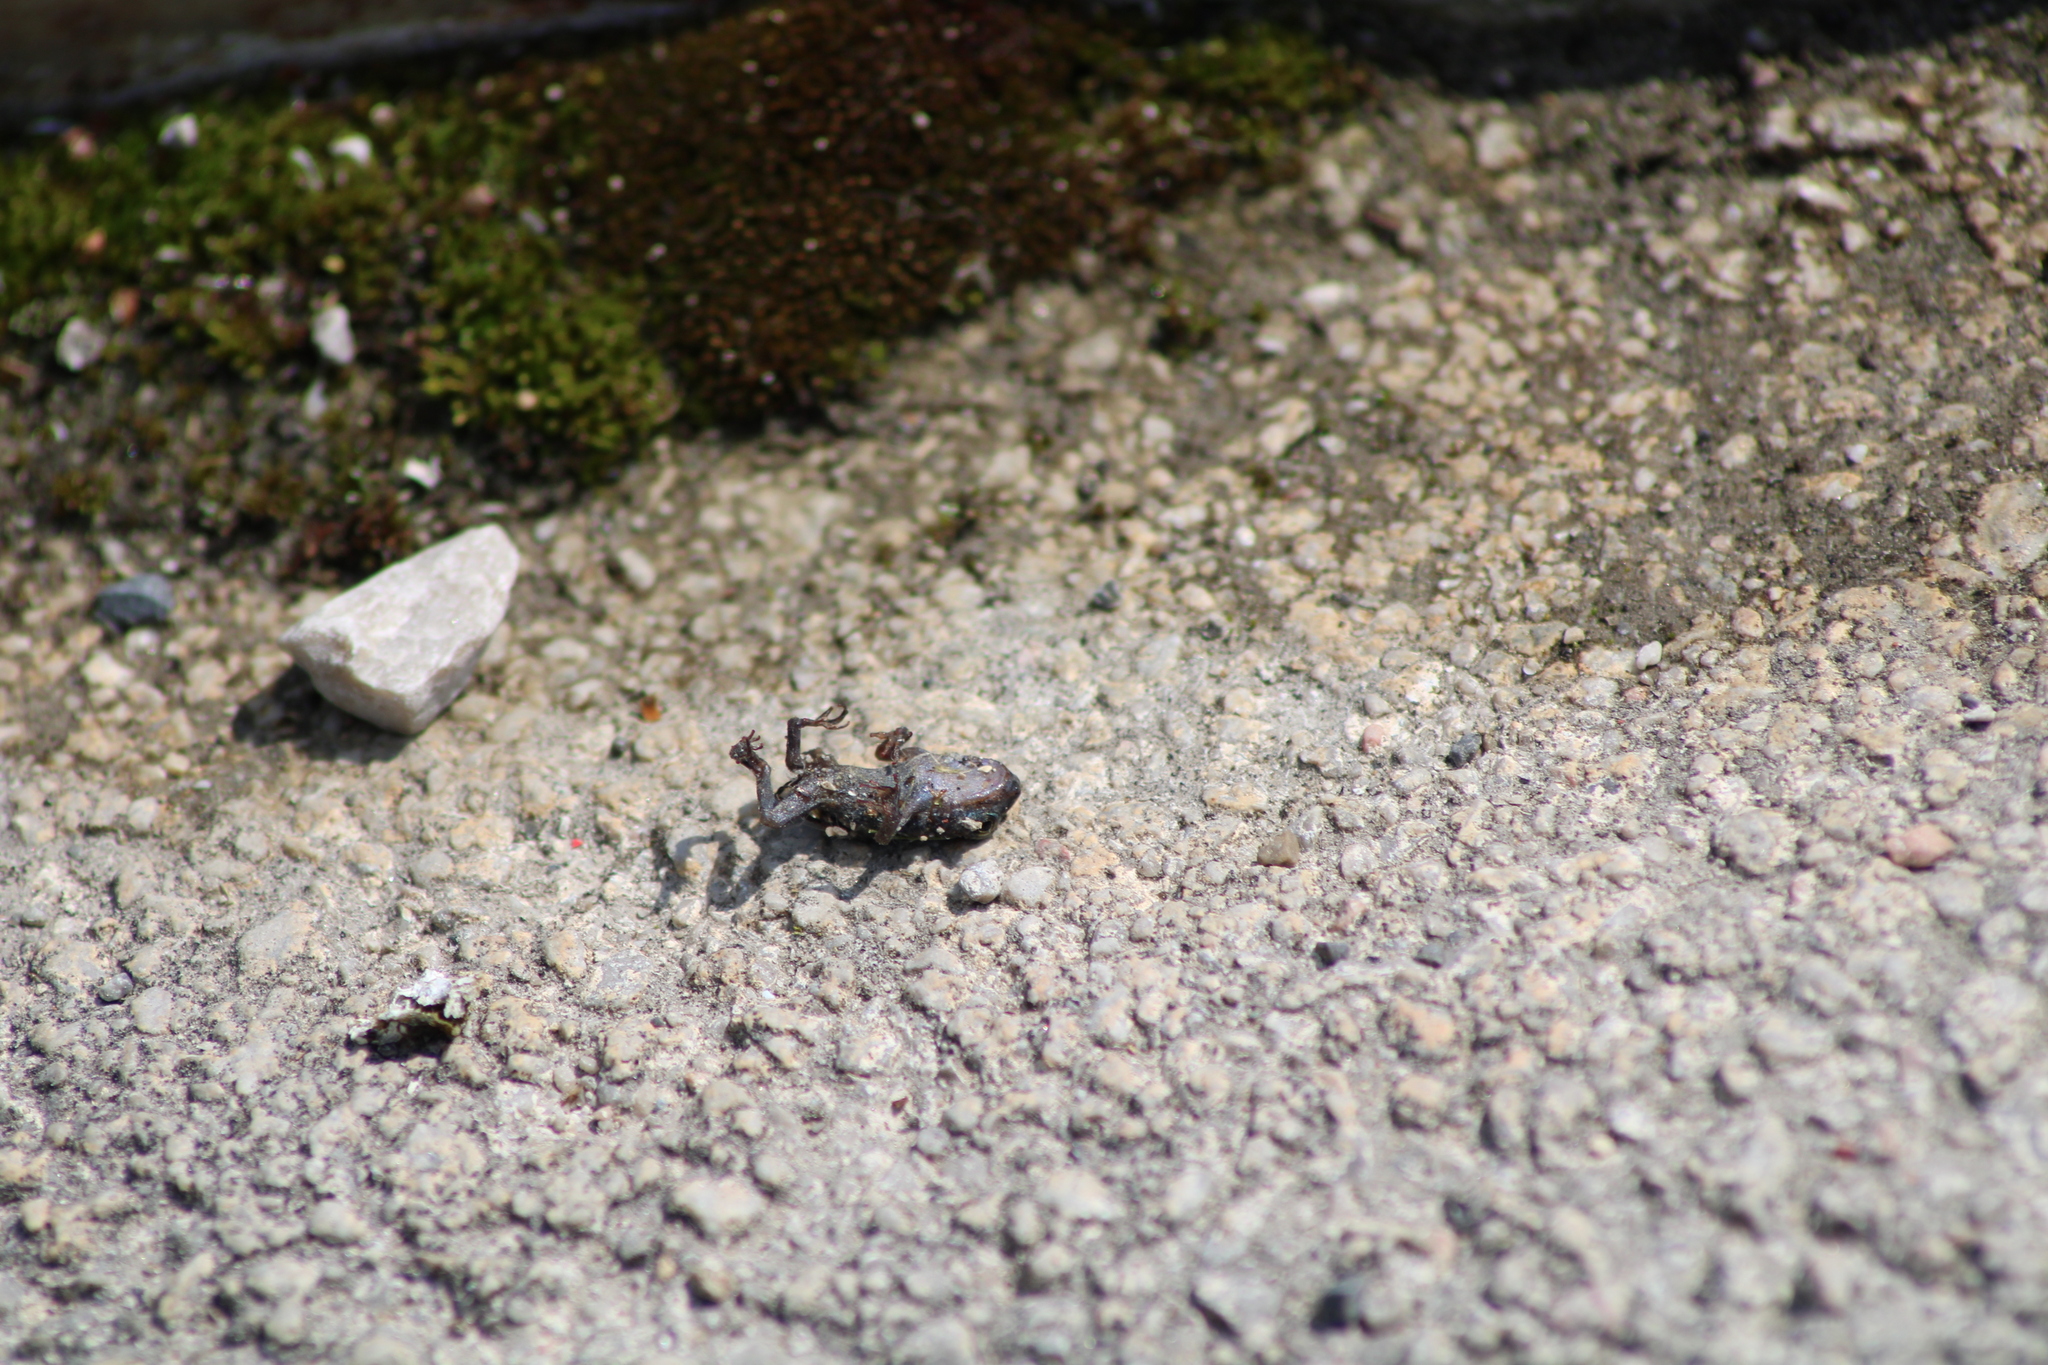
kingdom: Animalia
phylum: Chordata
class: Amphibia
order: Anura
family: Bufonidae
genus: Bufotes
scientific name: Bufotes viridis
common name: European green toad
